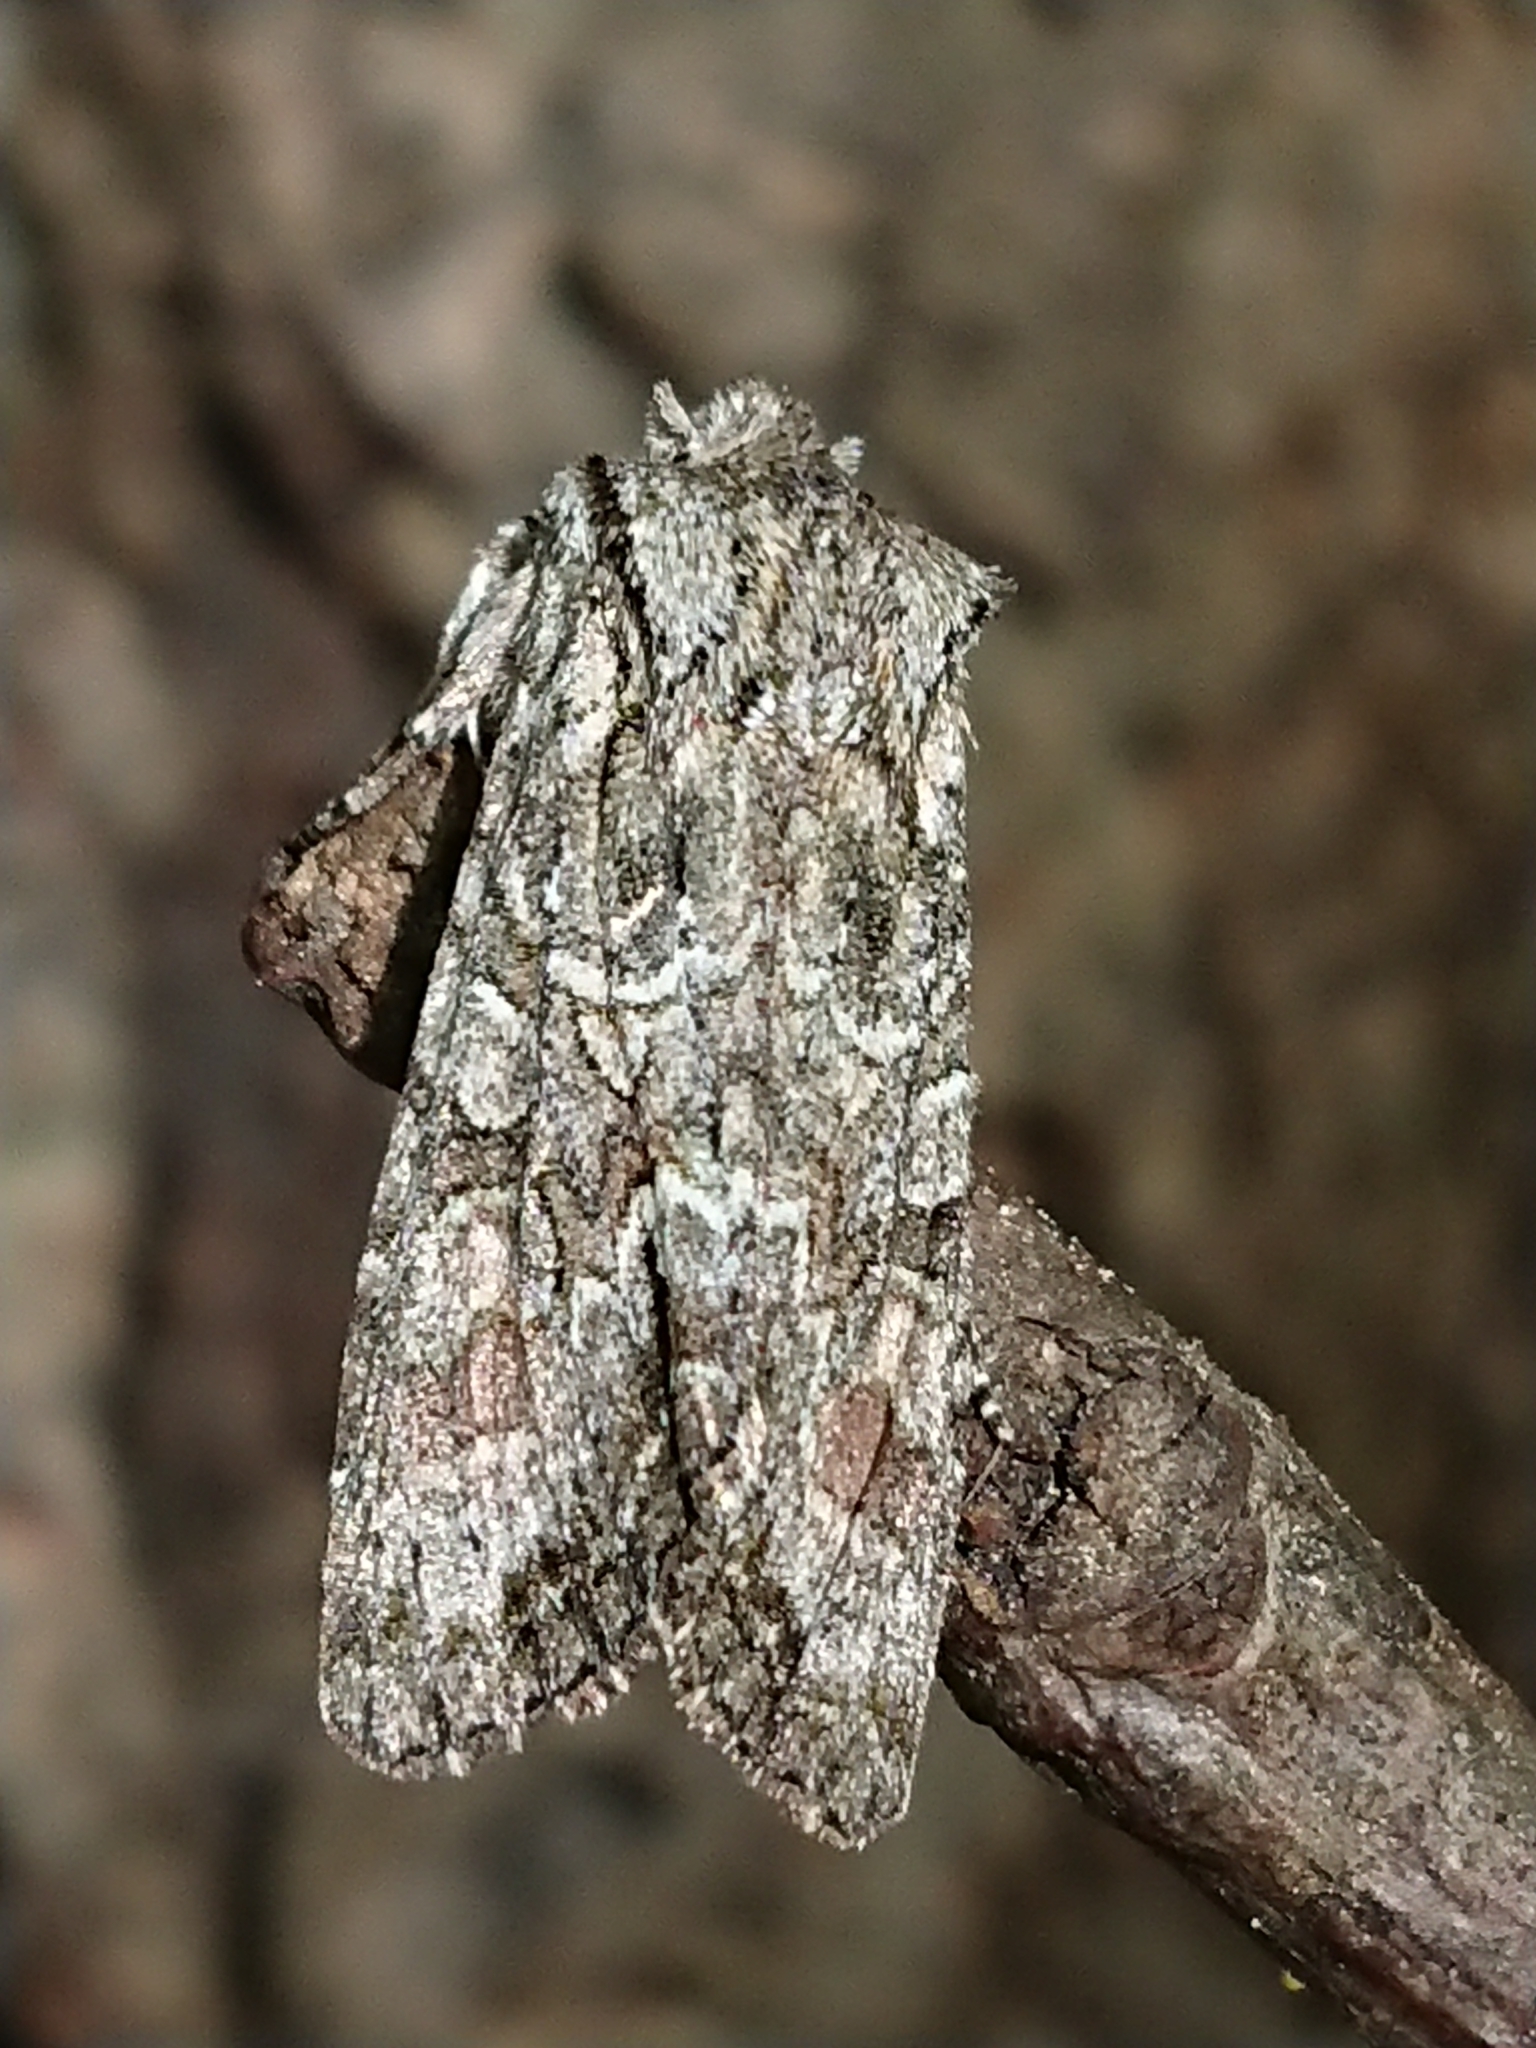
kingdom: Animalia
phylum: Arthropoda
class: Insecta
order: Lepidoptera
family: Noctuidae
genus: Ichneutica
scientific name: Ichneutica mutans
